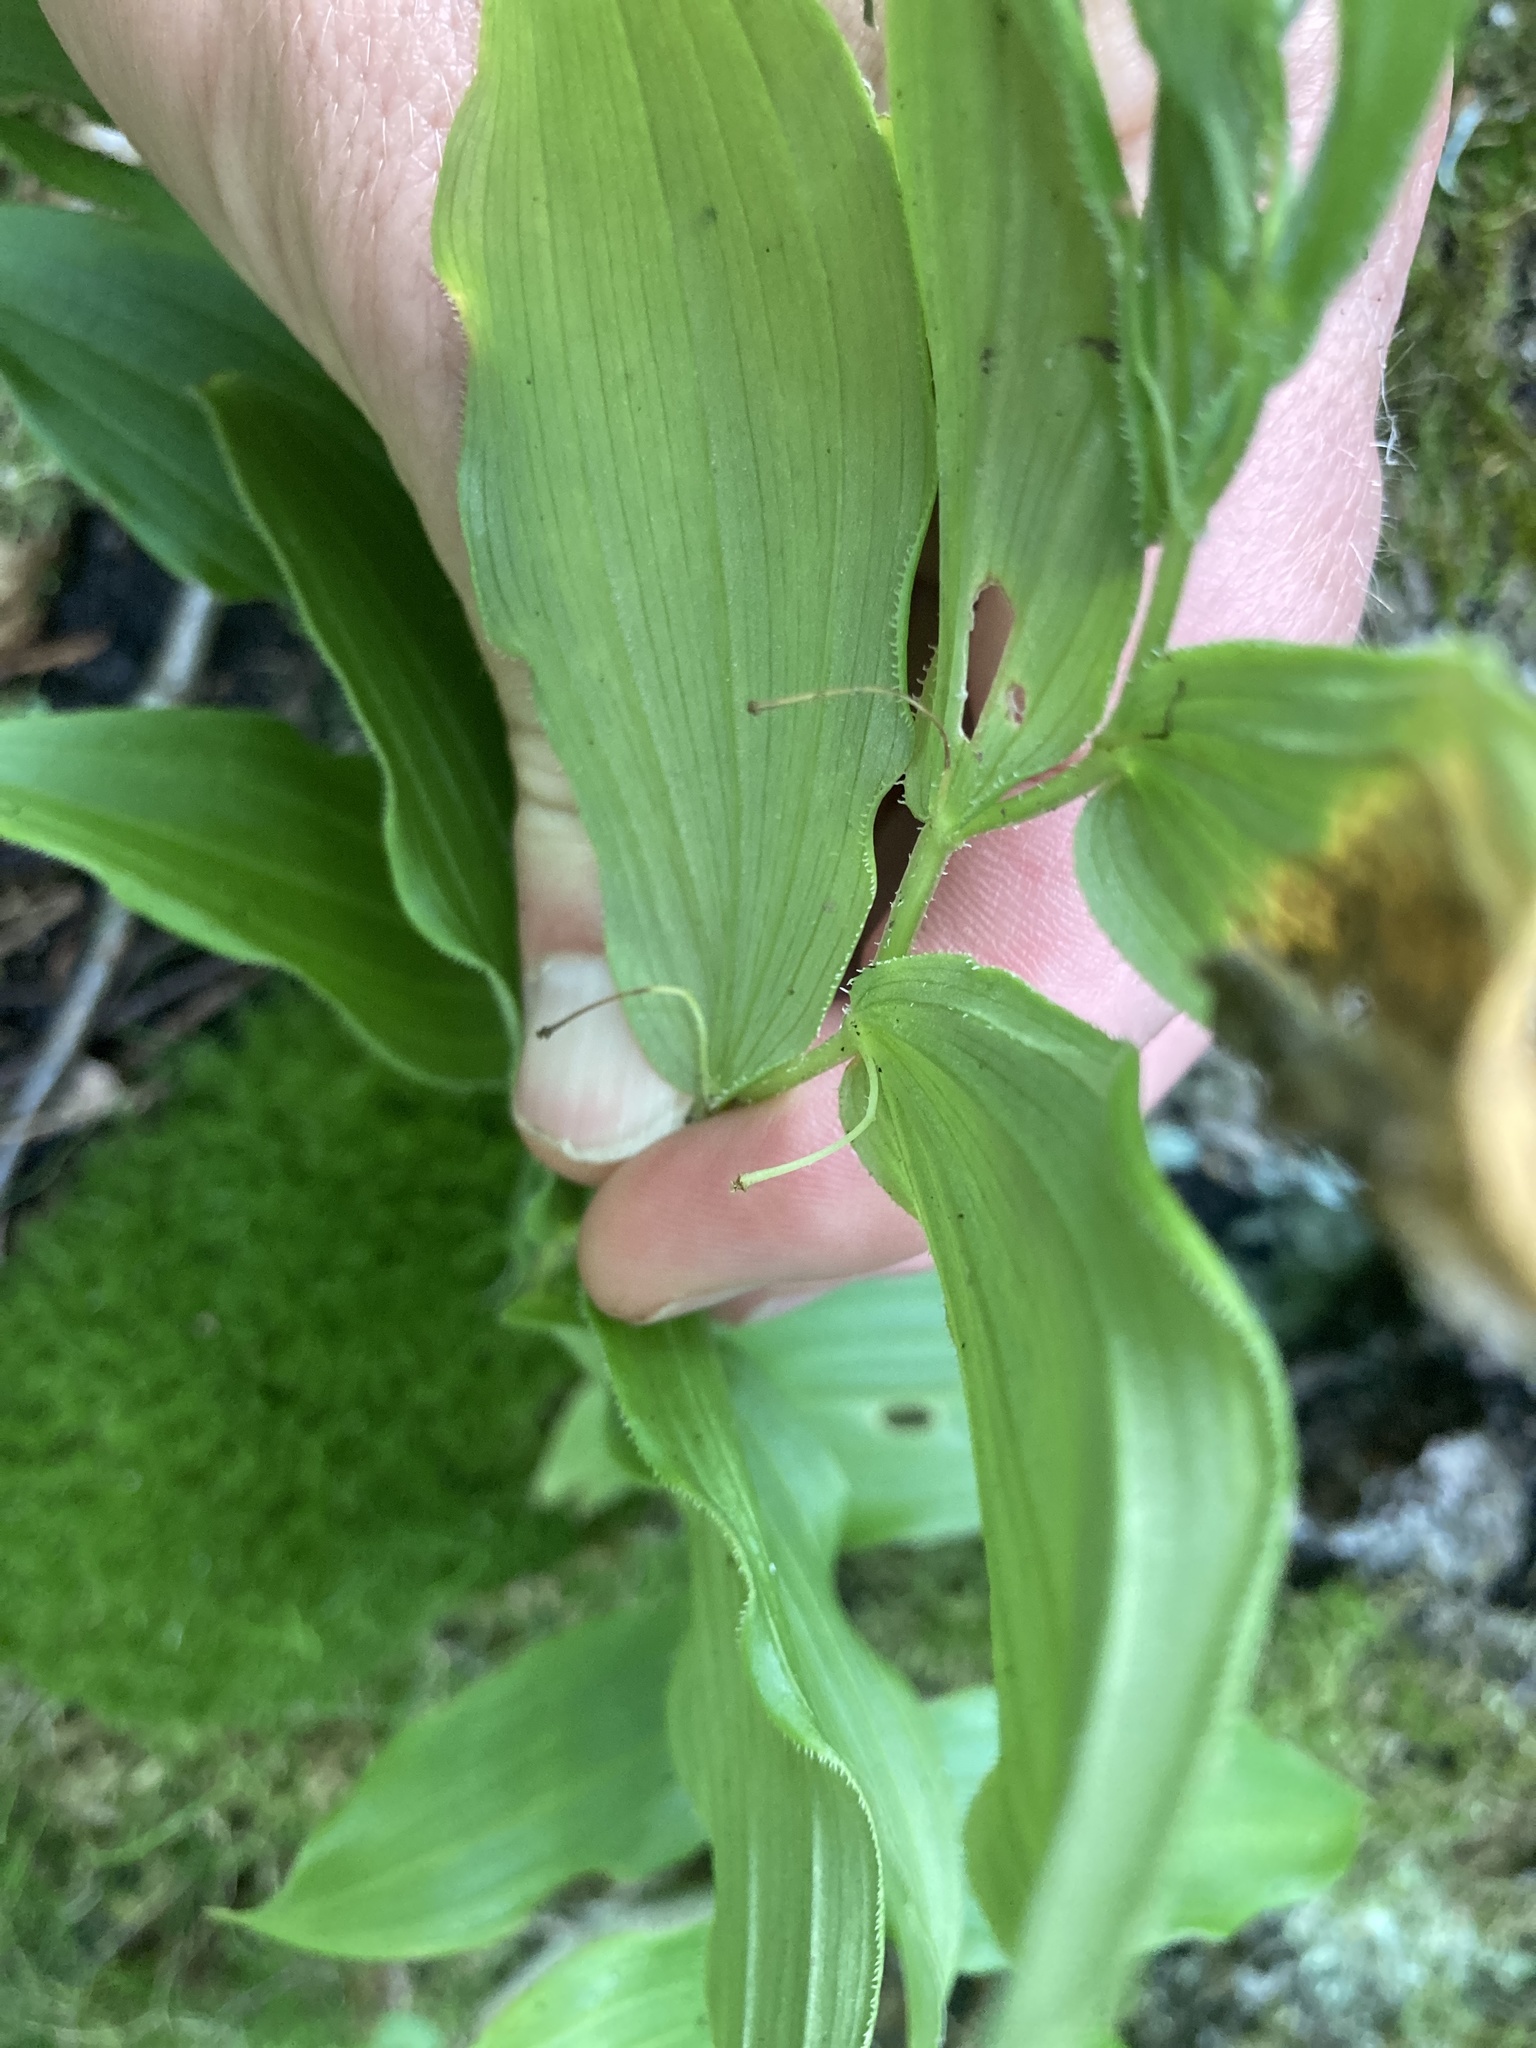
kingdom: Plantae
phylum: Tracheophyta
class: Liliopsida
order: Liliales
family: Liliaceae
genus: Streptopus
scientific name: Streptopus lanceolatus
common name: Rose mandarin
